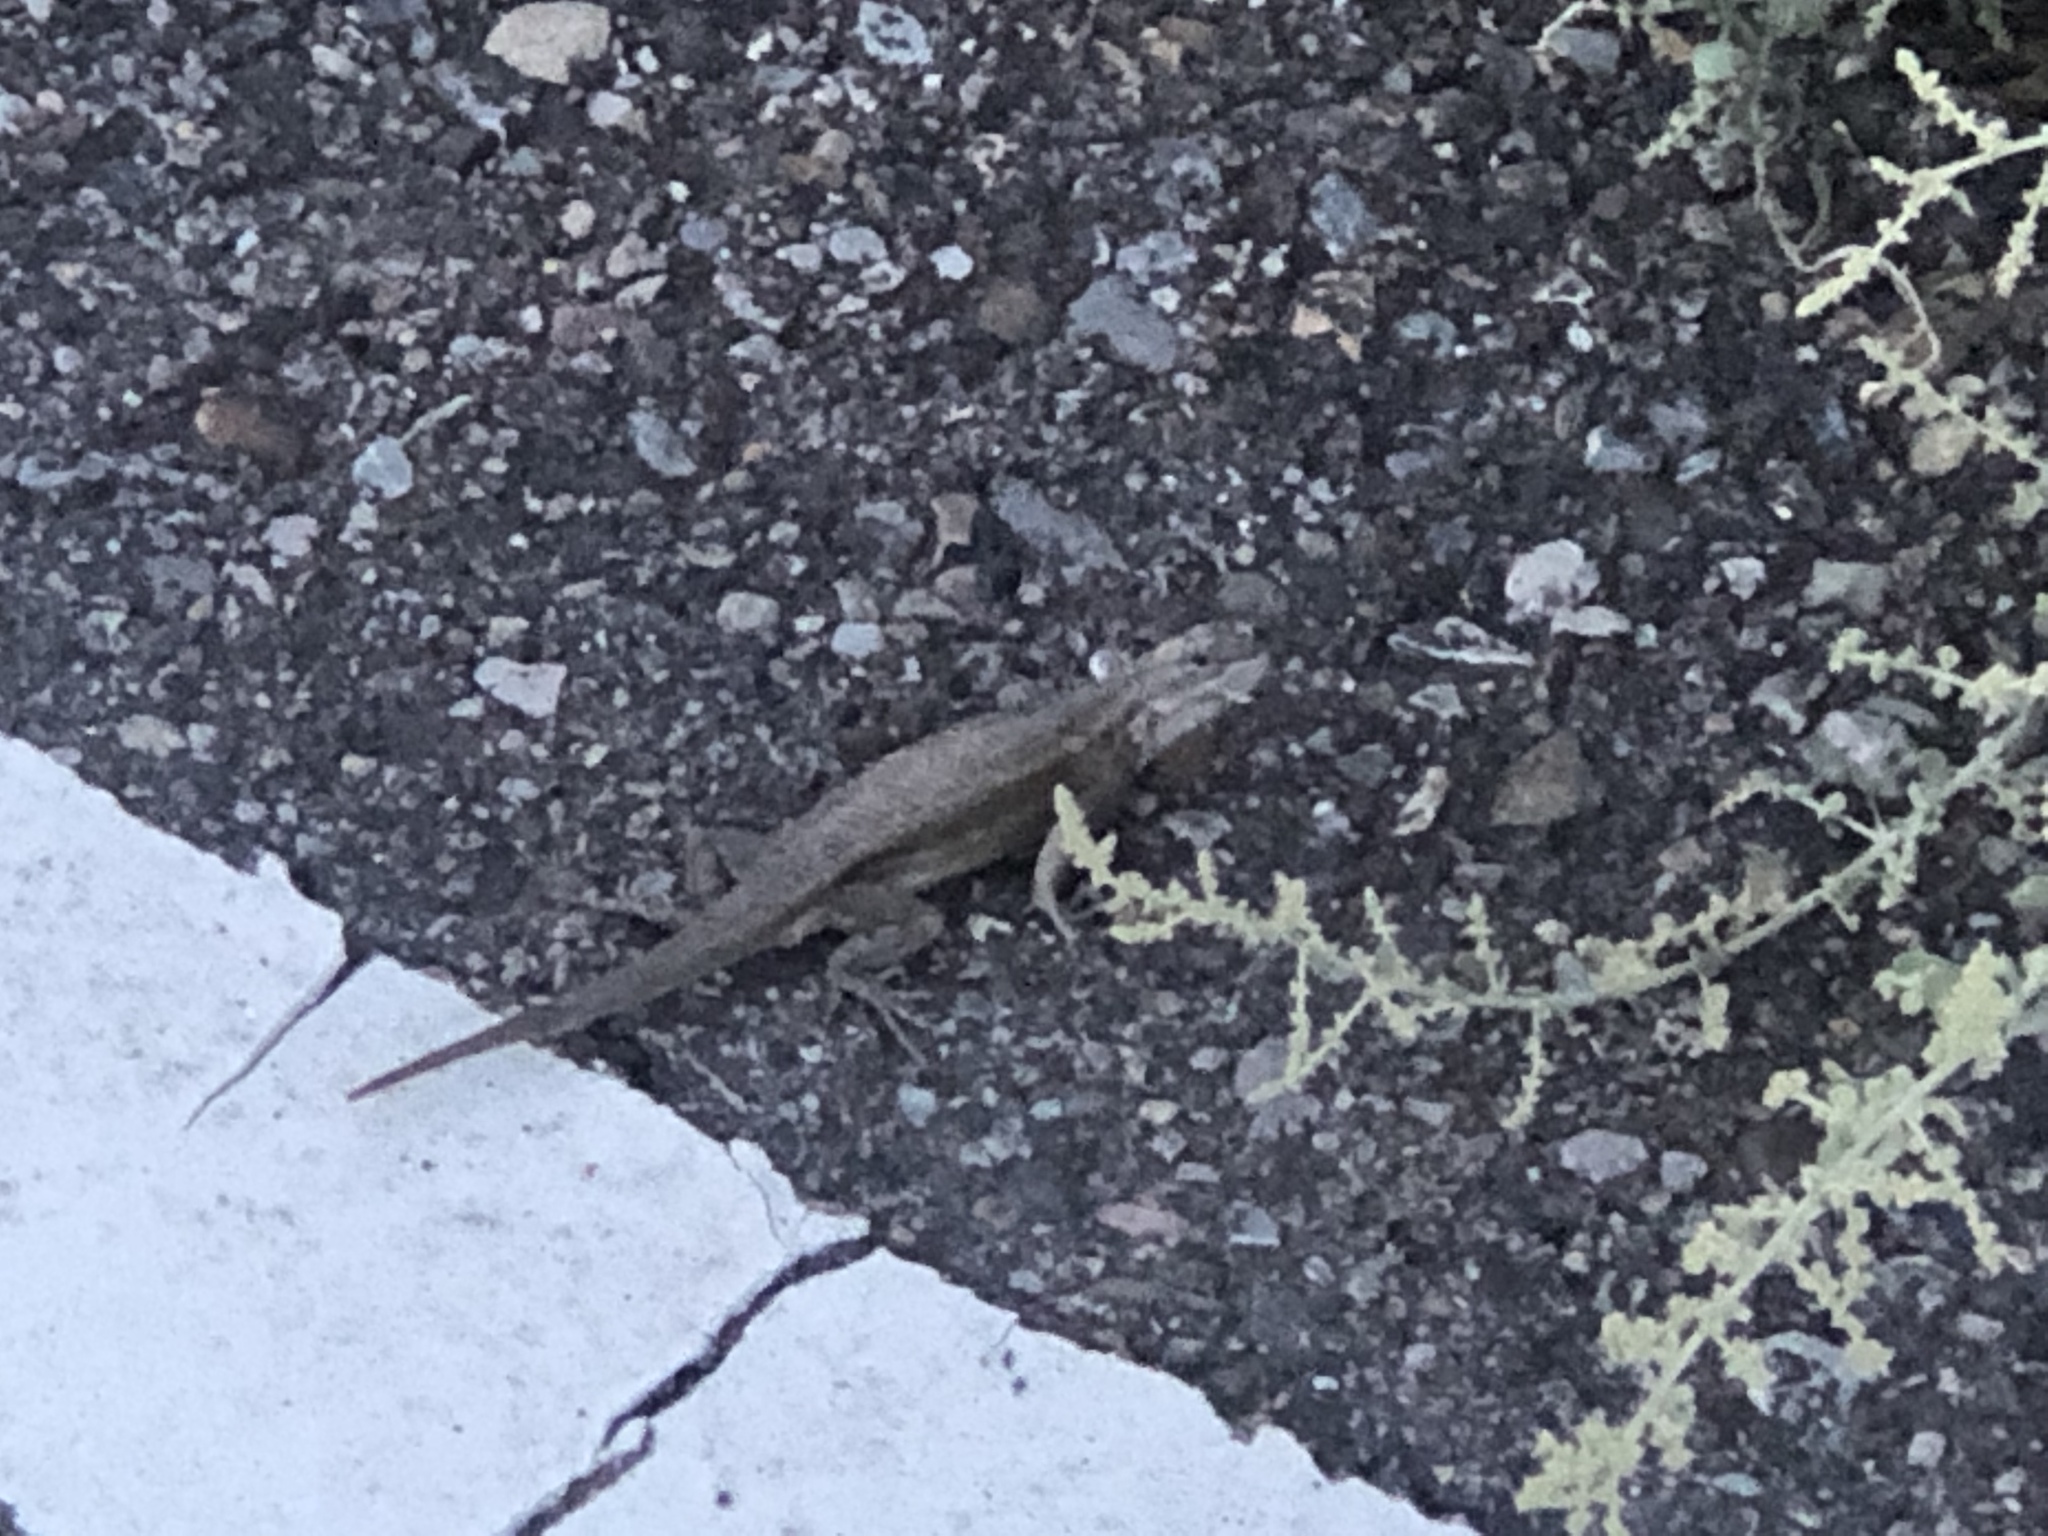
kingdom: Animalia
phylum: Chordata
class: Squamata
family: Phrynosomatidae
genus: Sceloporus
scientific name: Sceloporus cowlesi
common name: White sands prairie lizard
